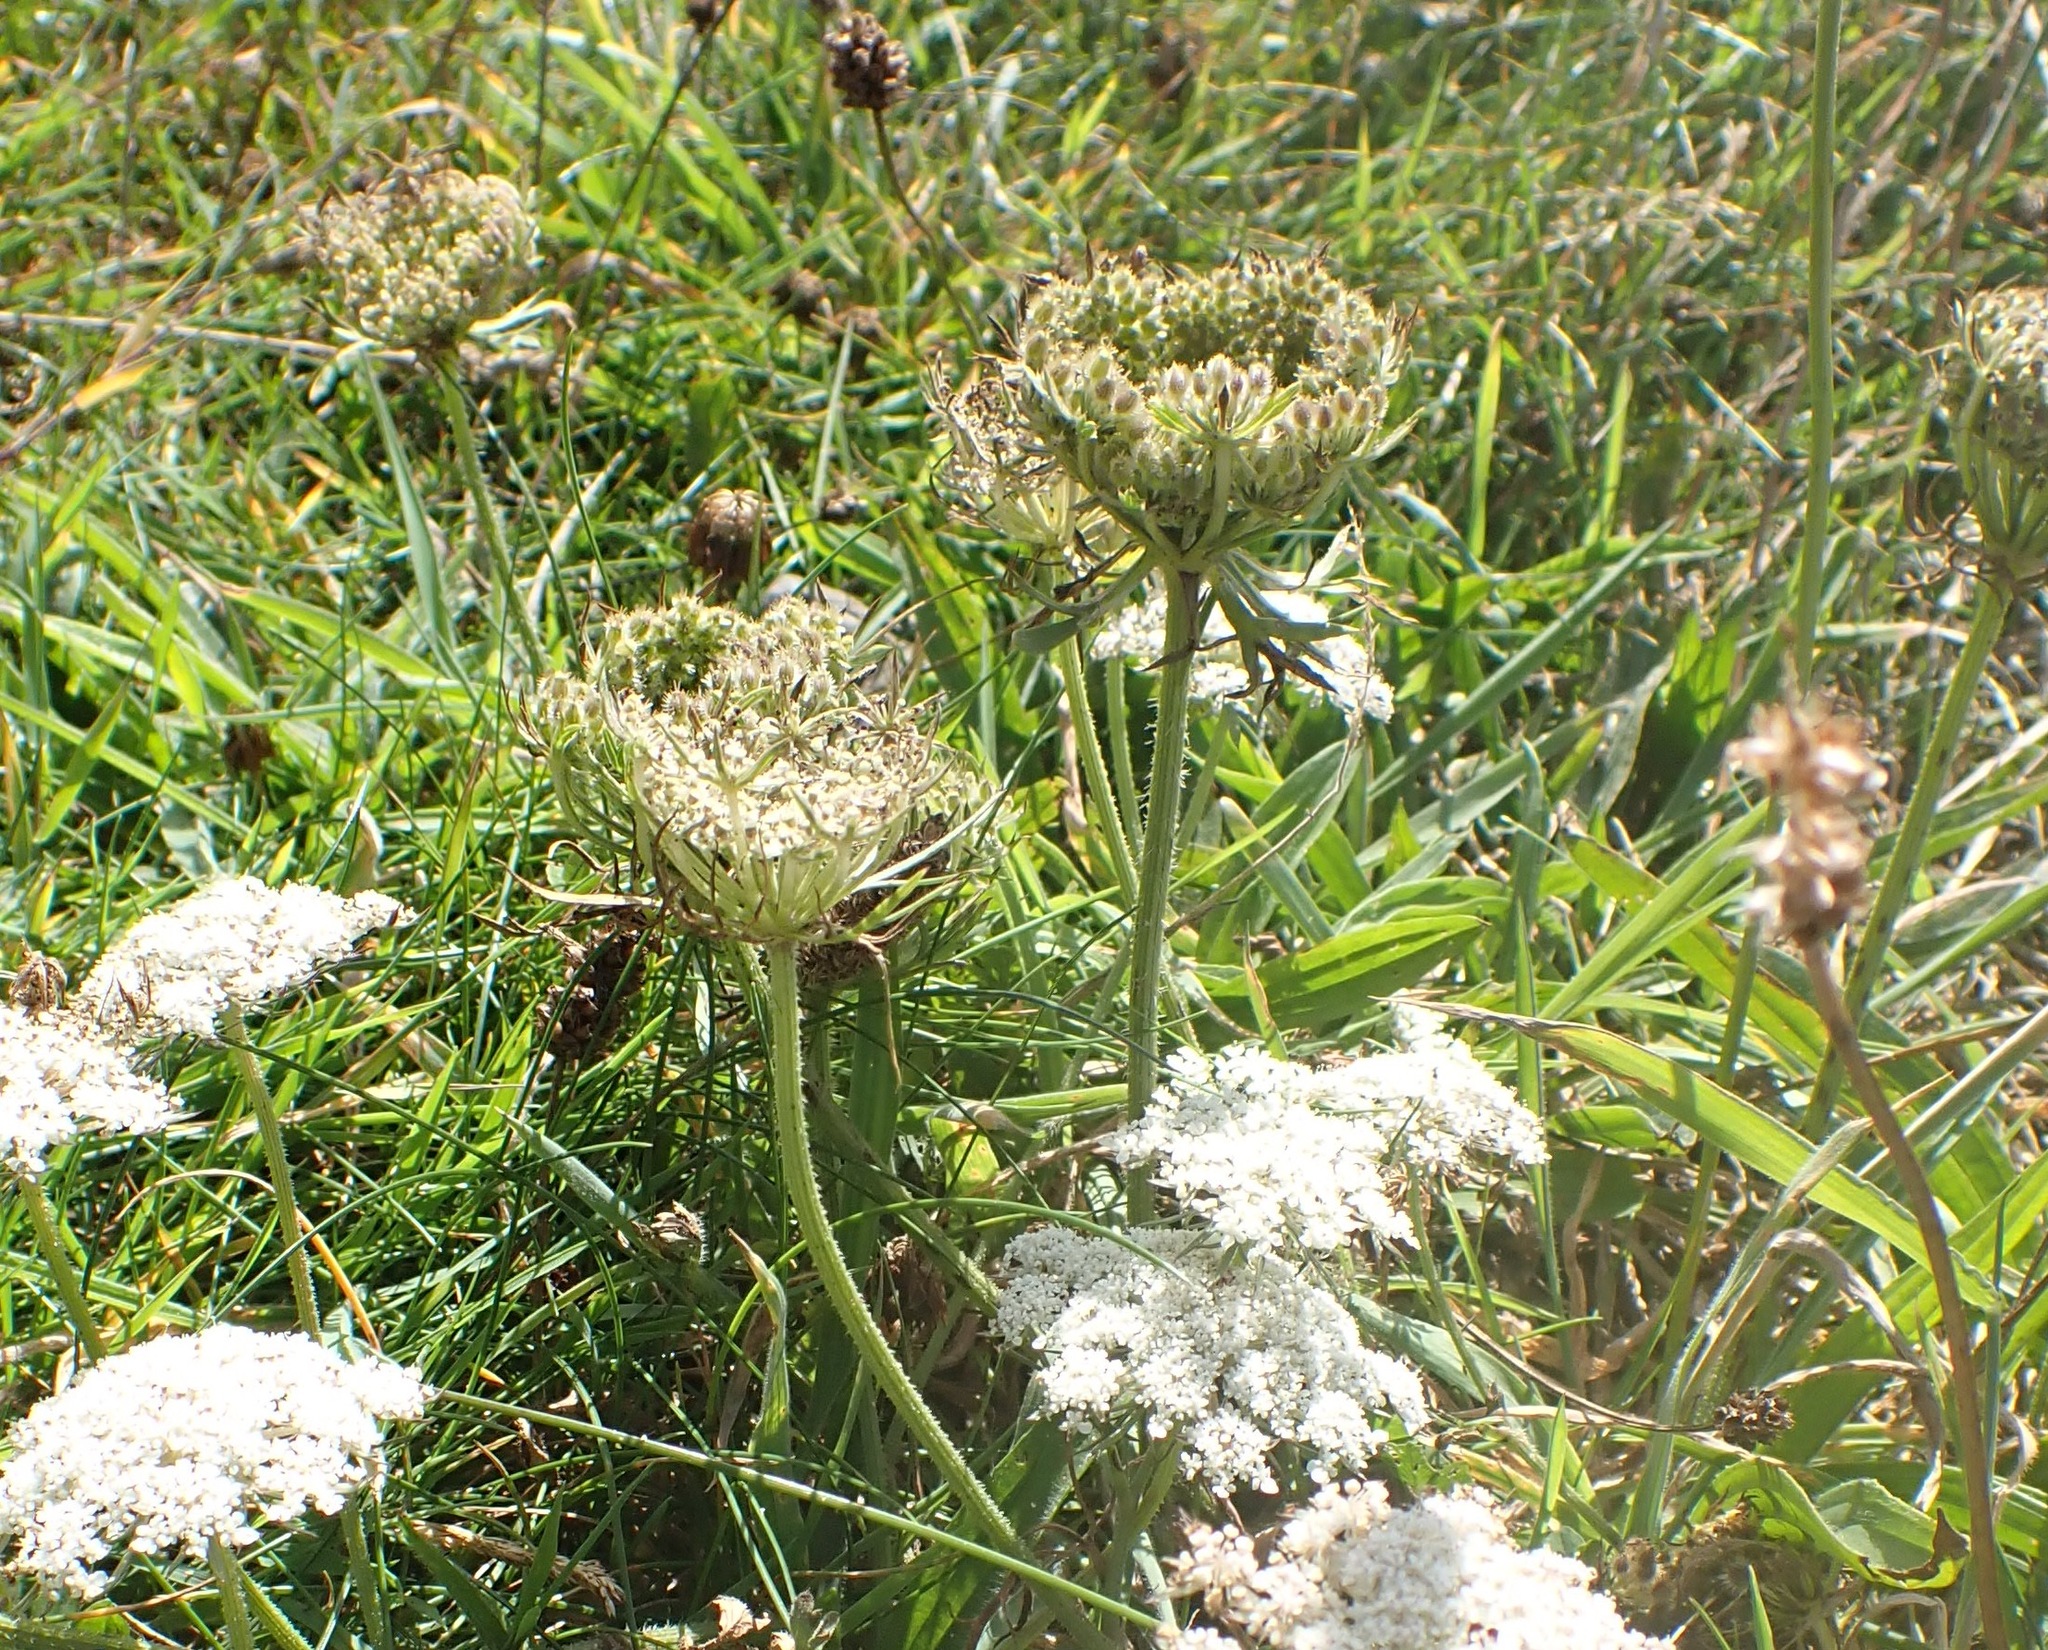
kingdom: Plantae
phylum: Tracheophyta
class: Magnoliopsida
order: Apiales
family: Apiaceae
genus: Daucus
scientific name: Daucus carota
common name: Wild carrot
